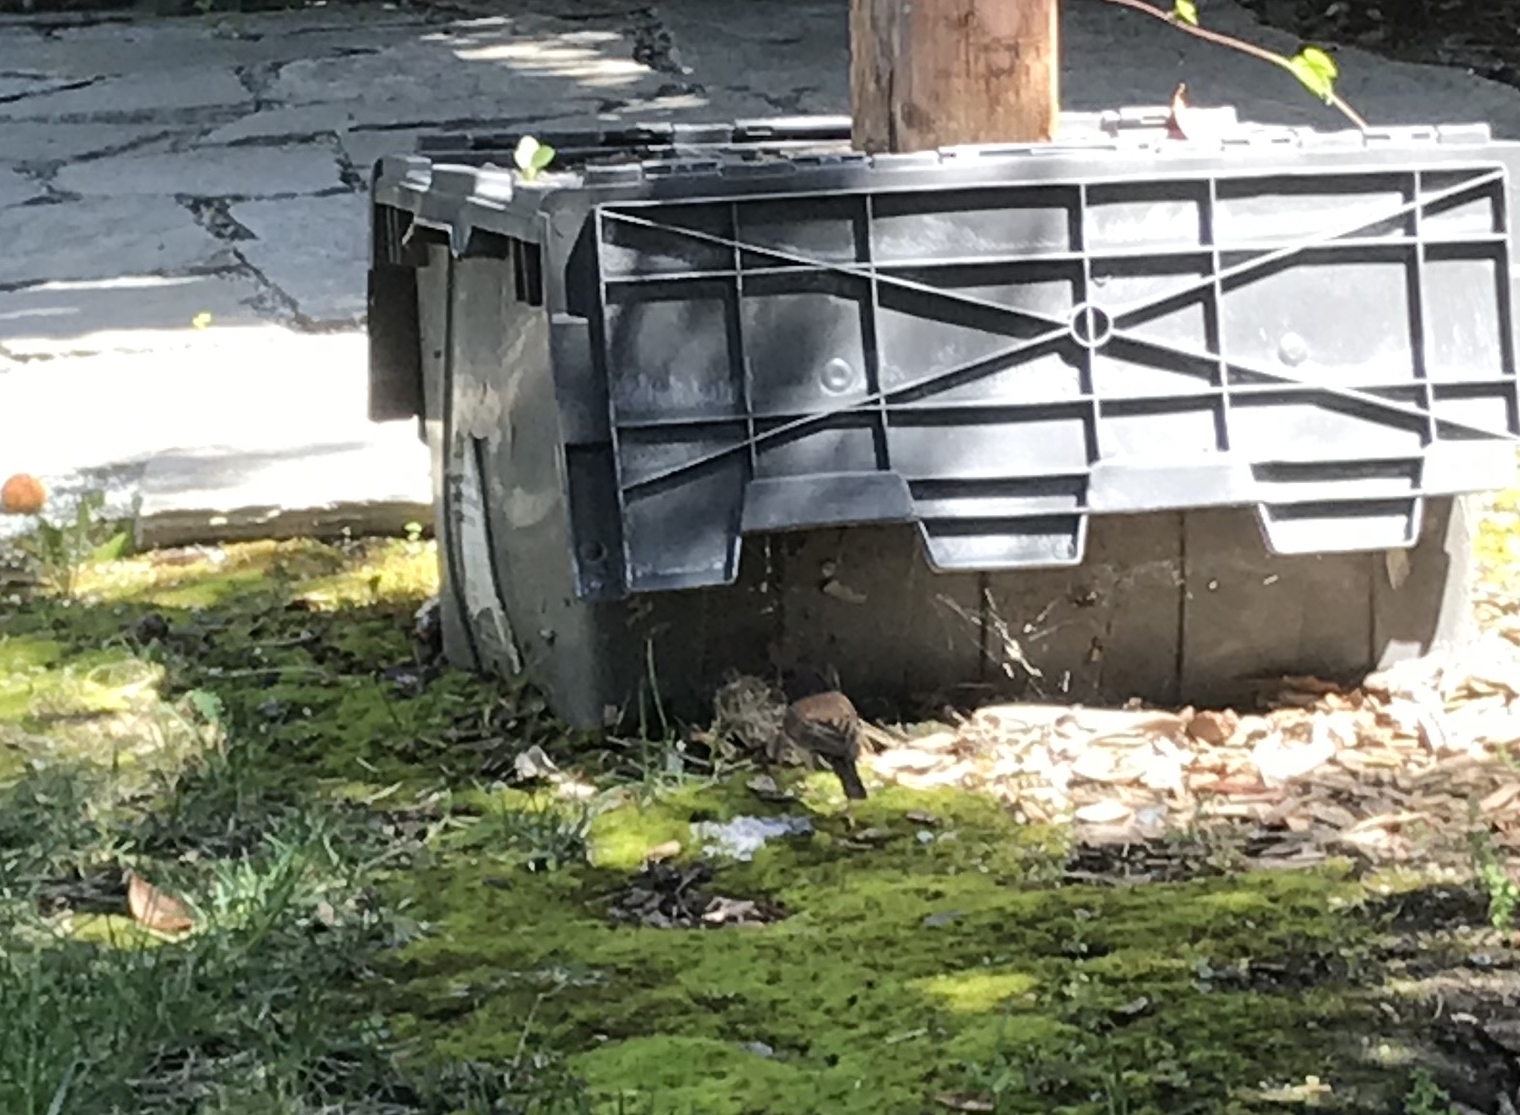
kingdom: Animalia
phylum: Chordata
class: Aves
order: Passeriformes
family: Passerellidae
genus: Junco
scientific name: Junco hyemalis
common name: Dark-eyed junco
